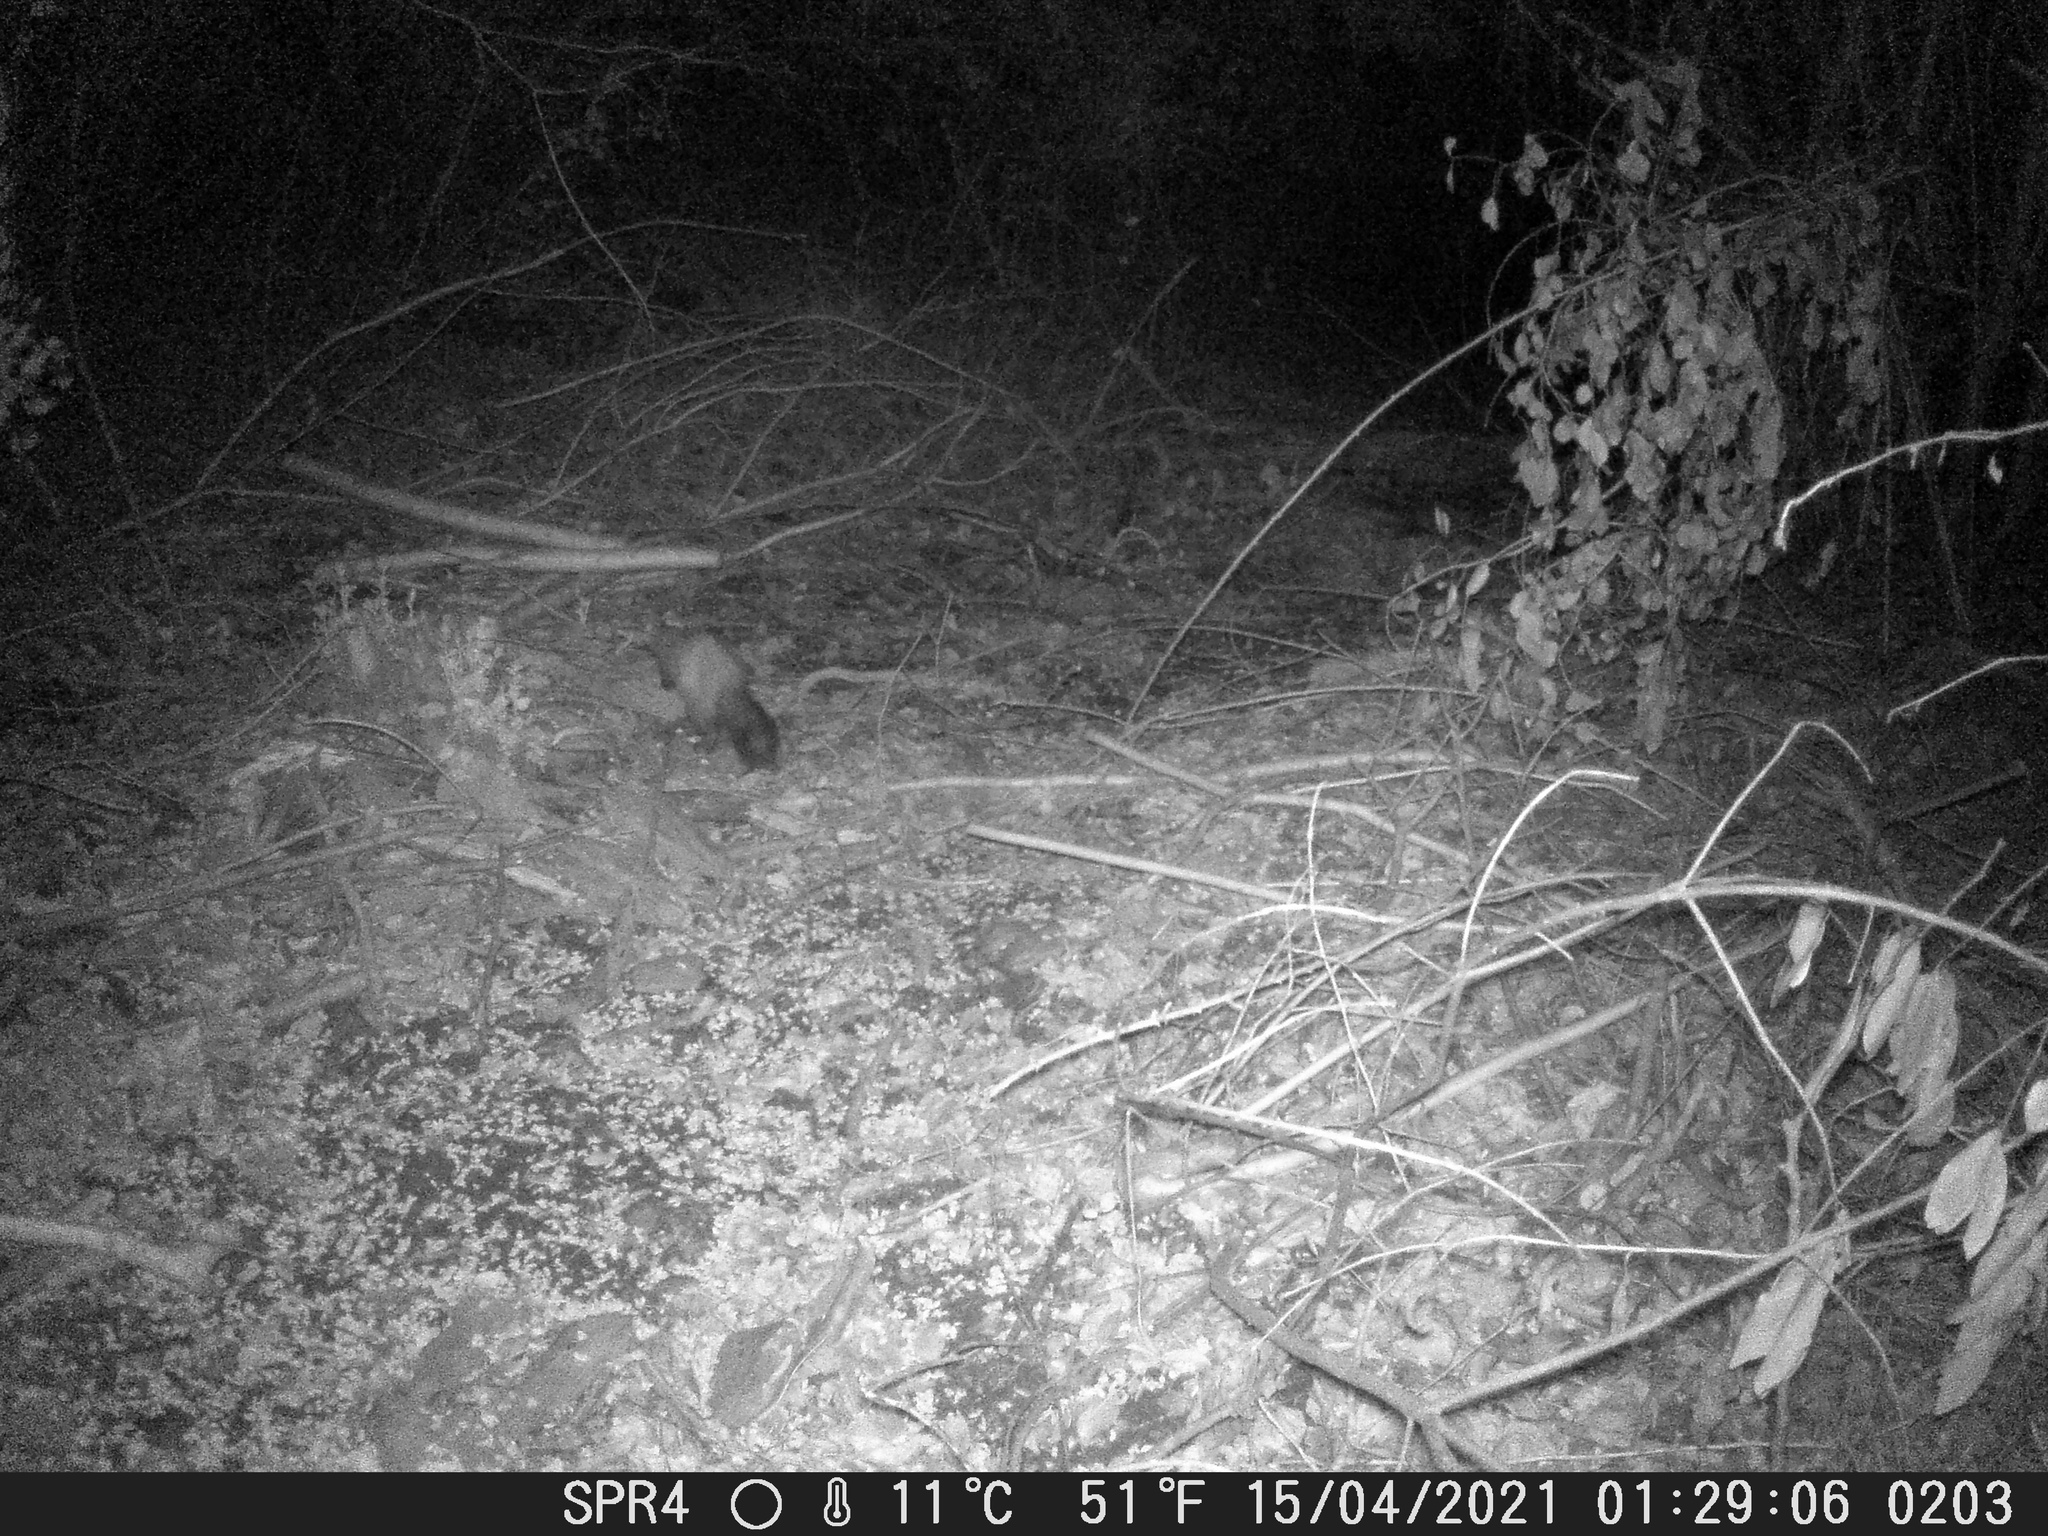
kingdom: Animalia
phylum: Chordata
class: Mammalia
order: Carnivora
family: Mustelidae
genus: Martes
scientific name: Martes foina
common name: Beech marten
